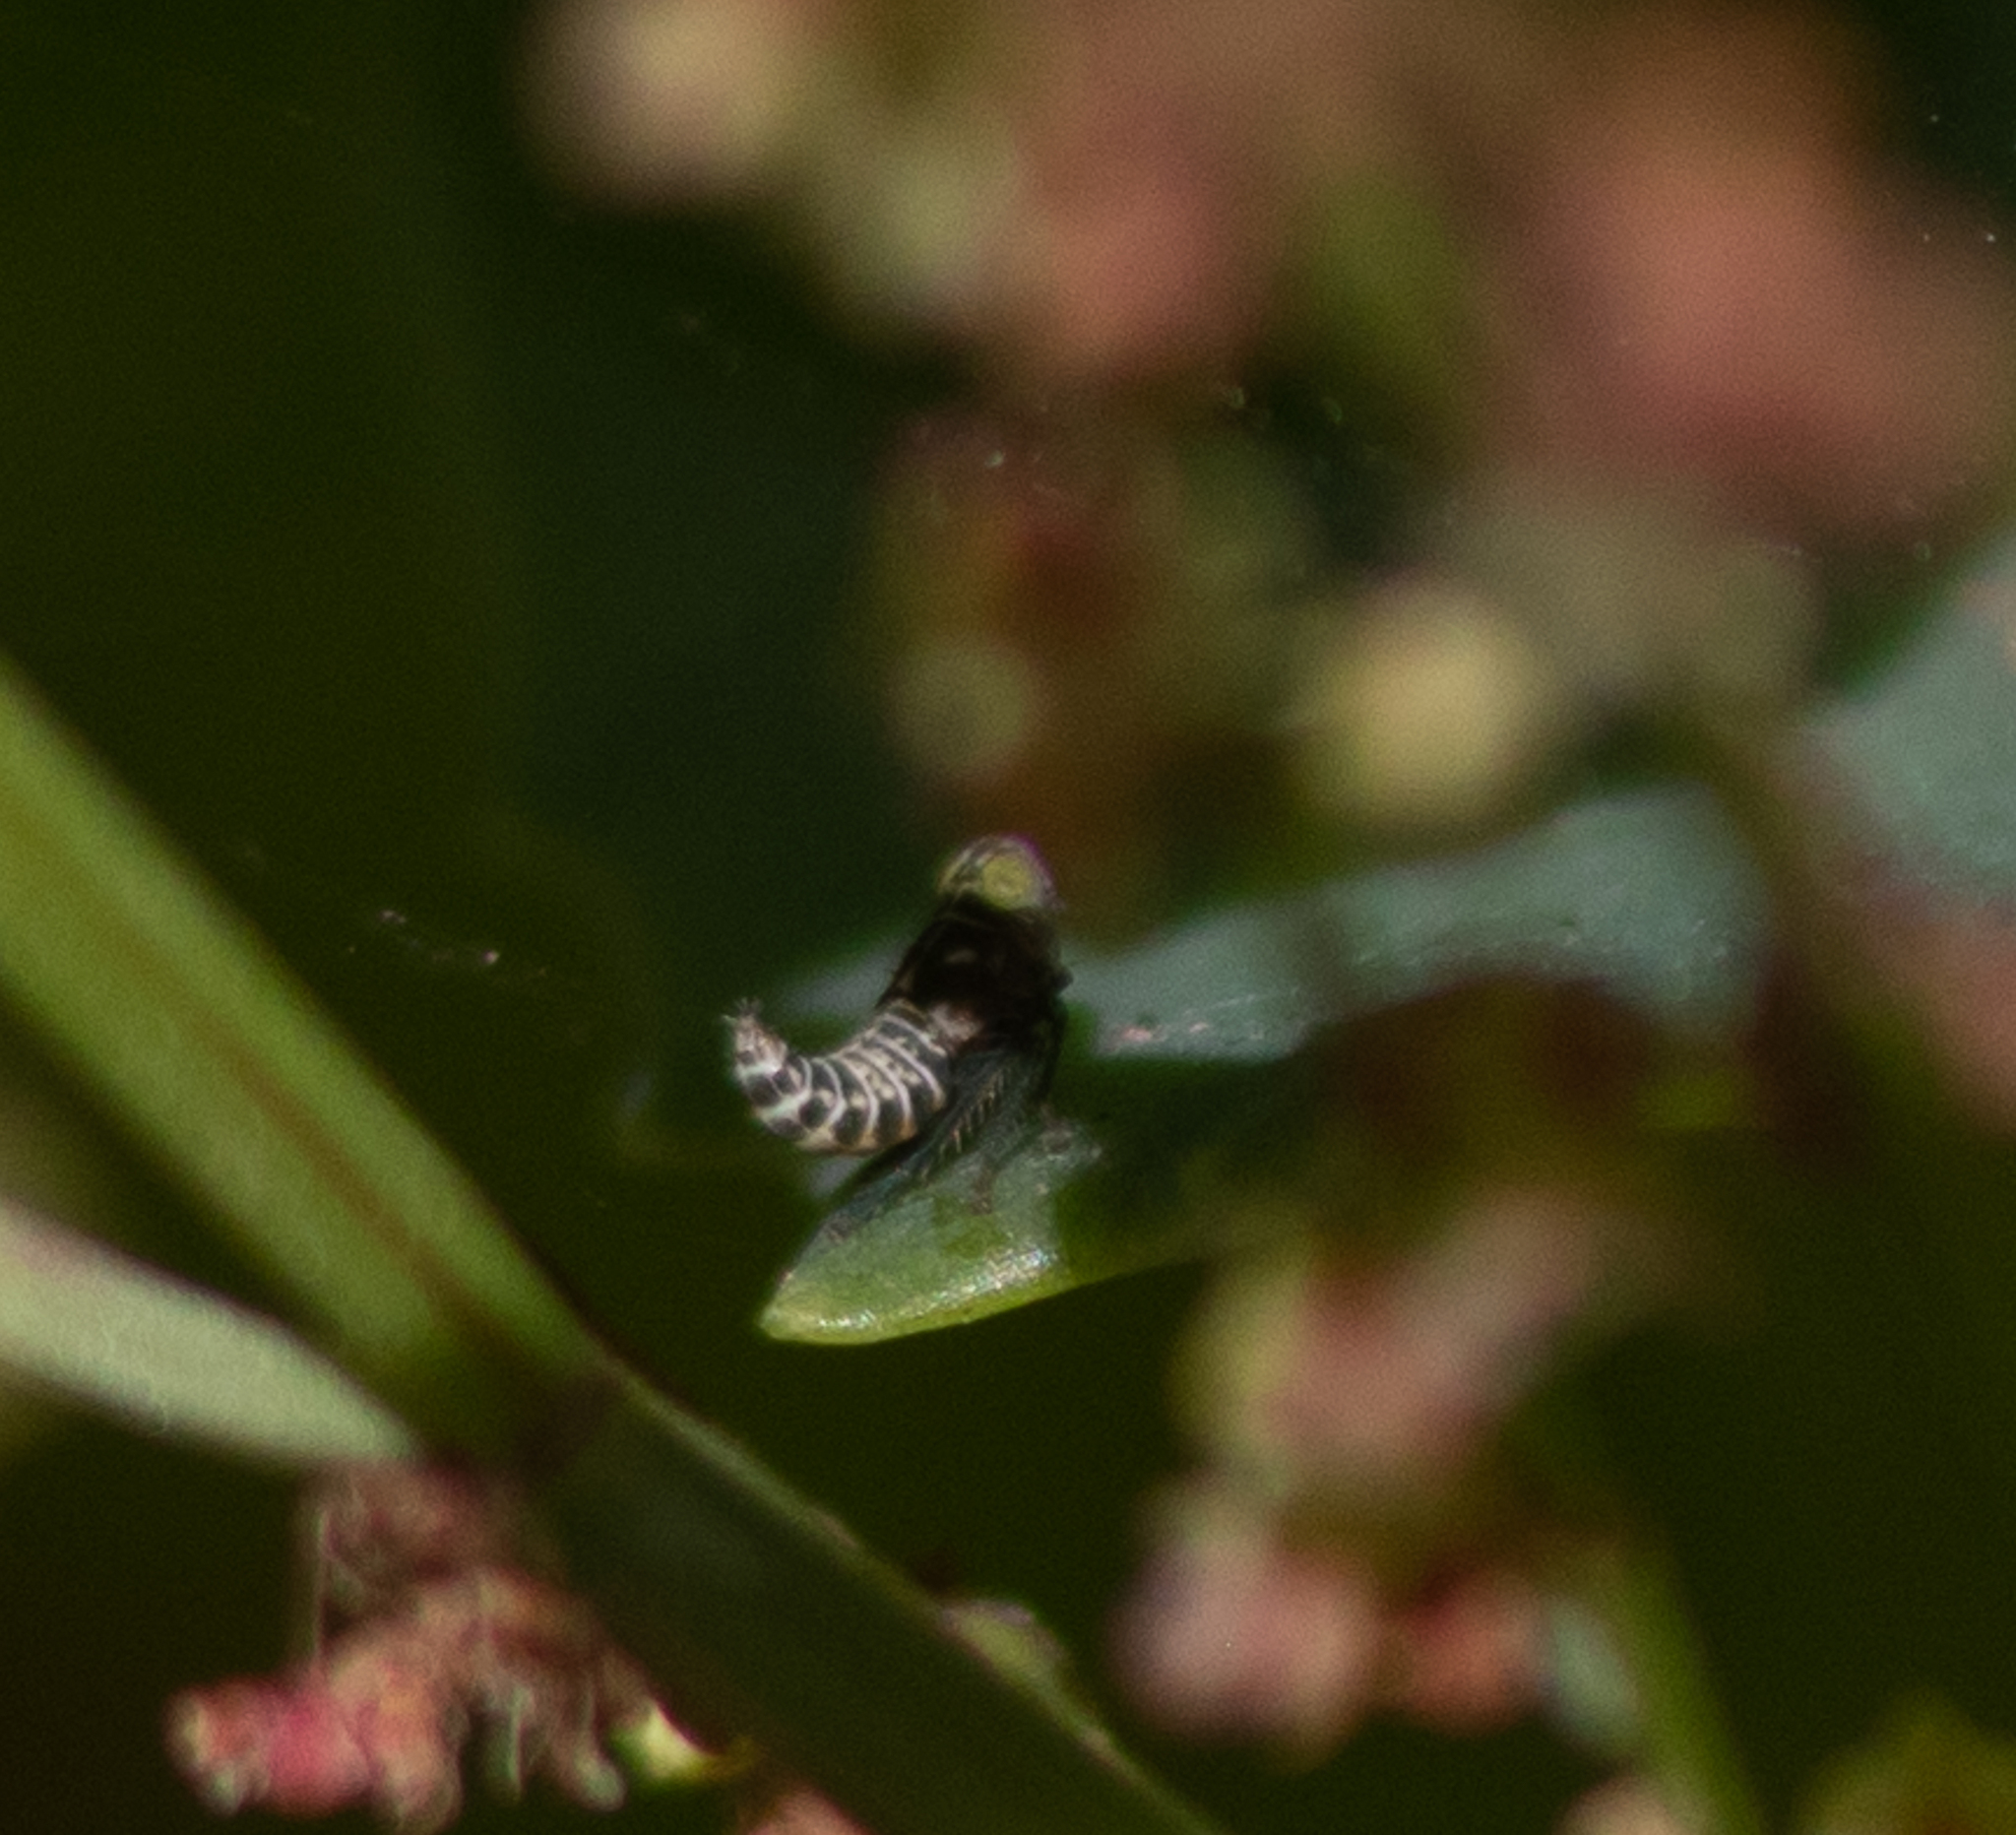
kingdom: Animalia
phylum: Arthropoda
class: Insecta
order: Hemiptera
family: Cicadellidae
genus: Jikradia
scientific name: Jikradia olitoria
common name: Coppery leafhopper
